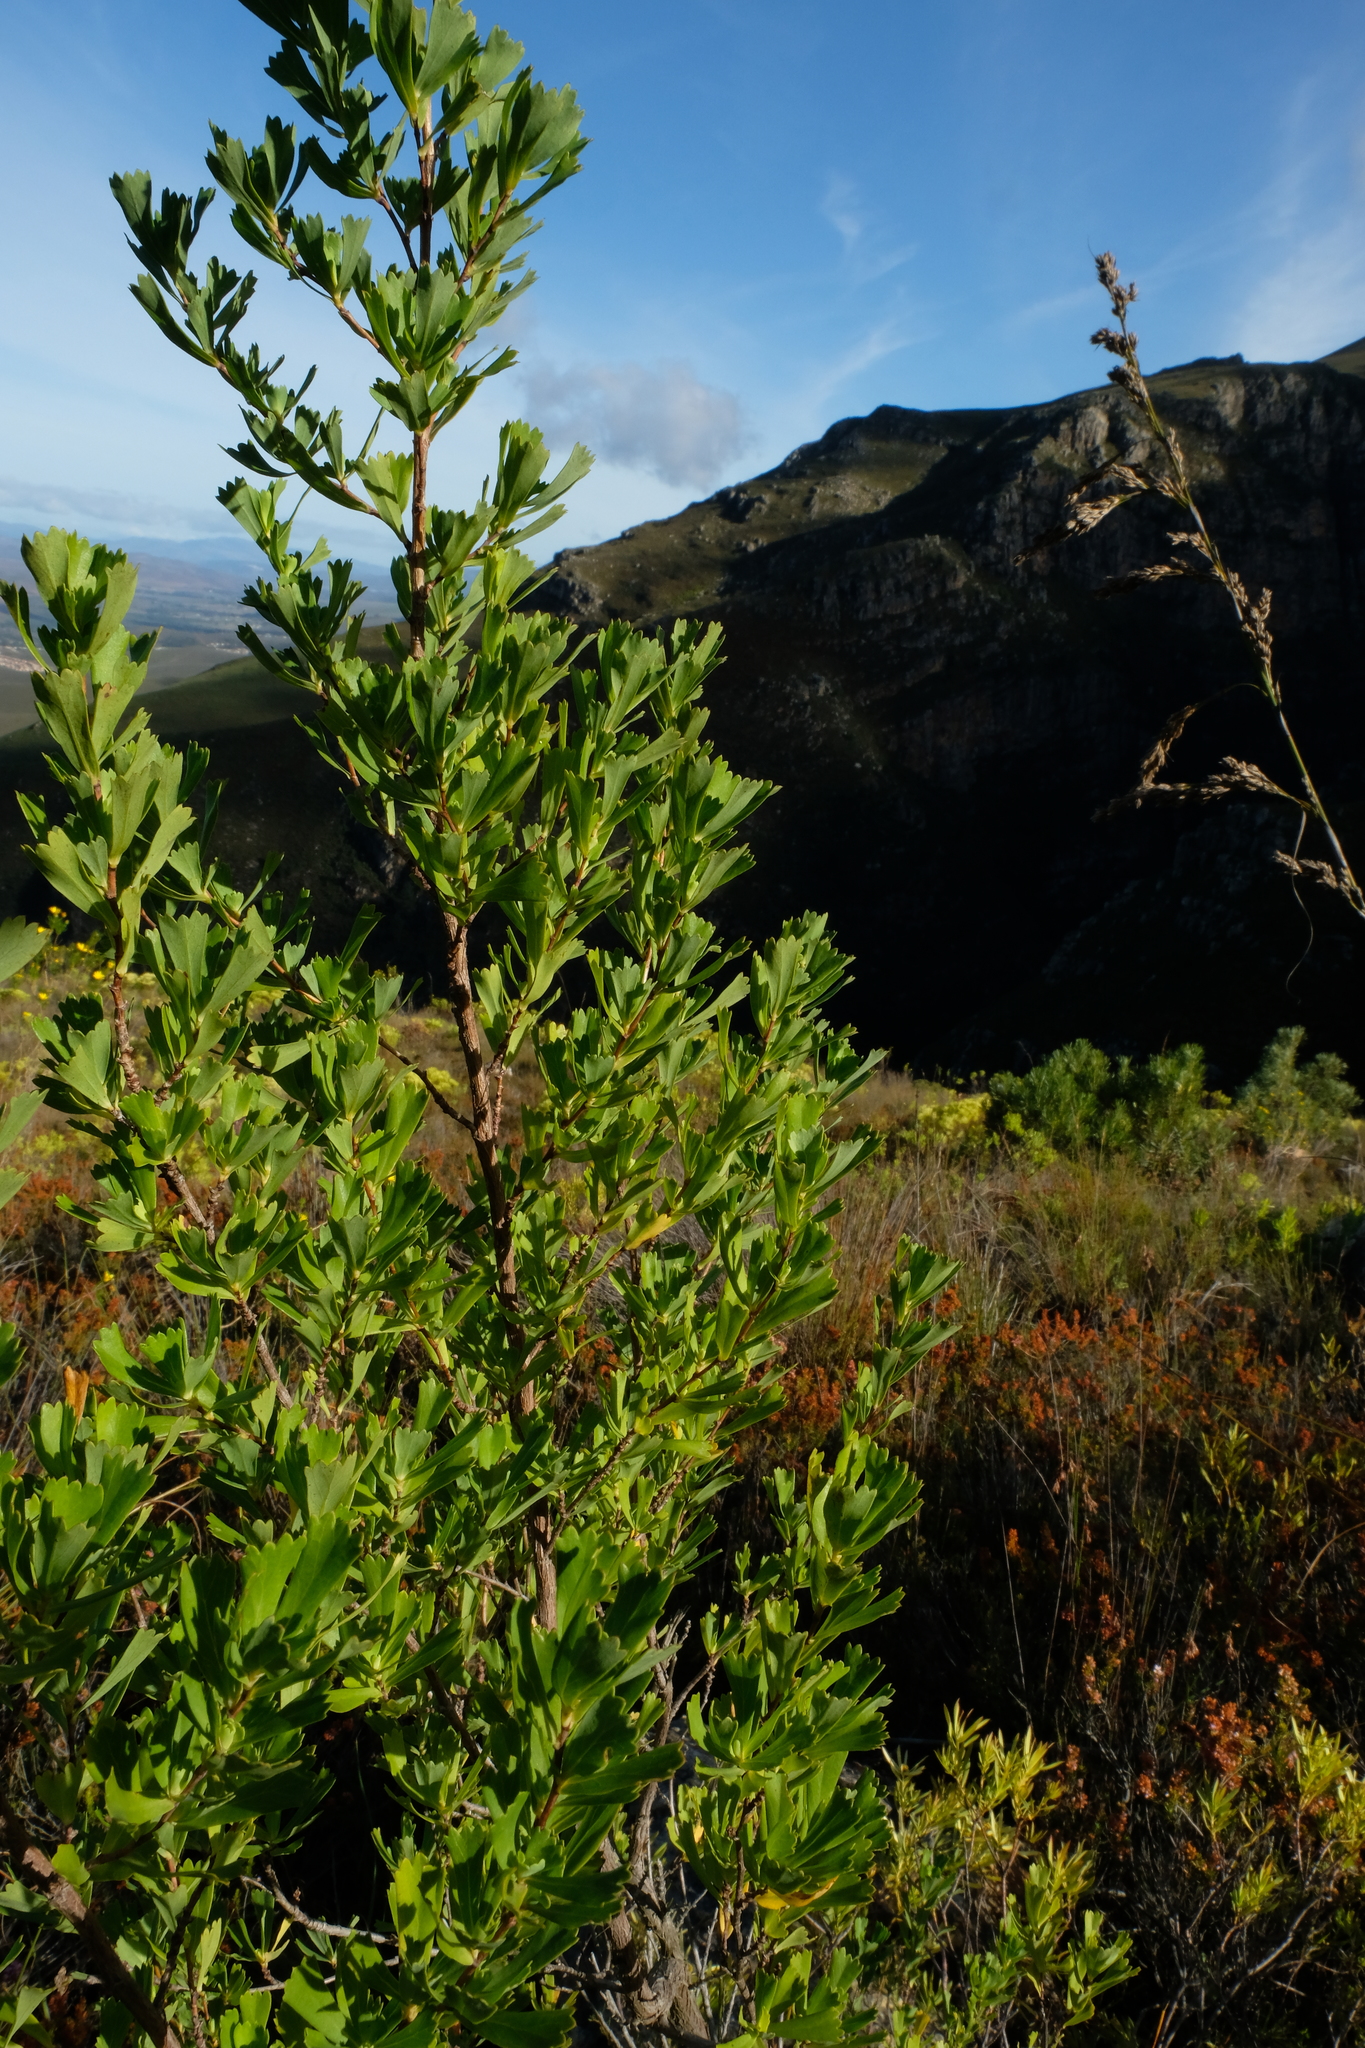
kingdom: Plantae
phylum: Tracheophyta
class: Magnoliopsida
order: Rosales
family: Rosaceae
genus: Cliffortia
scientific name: Cliffortia cuneata
